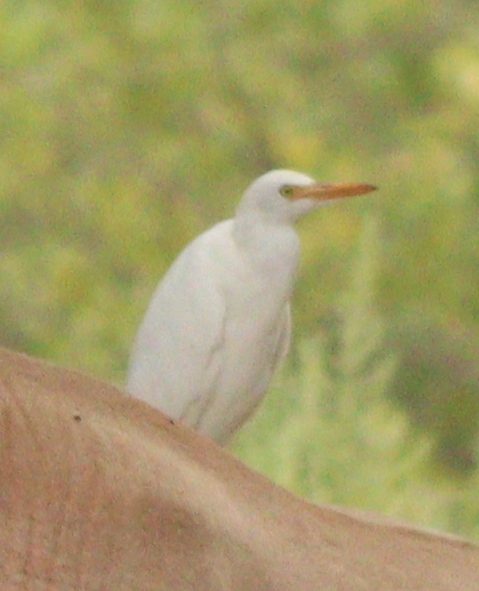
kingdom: Animalia
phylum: Chordata
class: Aves
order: Pelecaniformes
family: Ardeidae
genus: Bubulcus
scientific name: Bubulcus ibis
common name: Cattle egret
